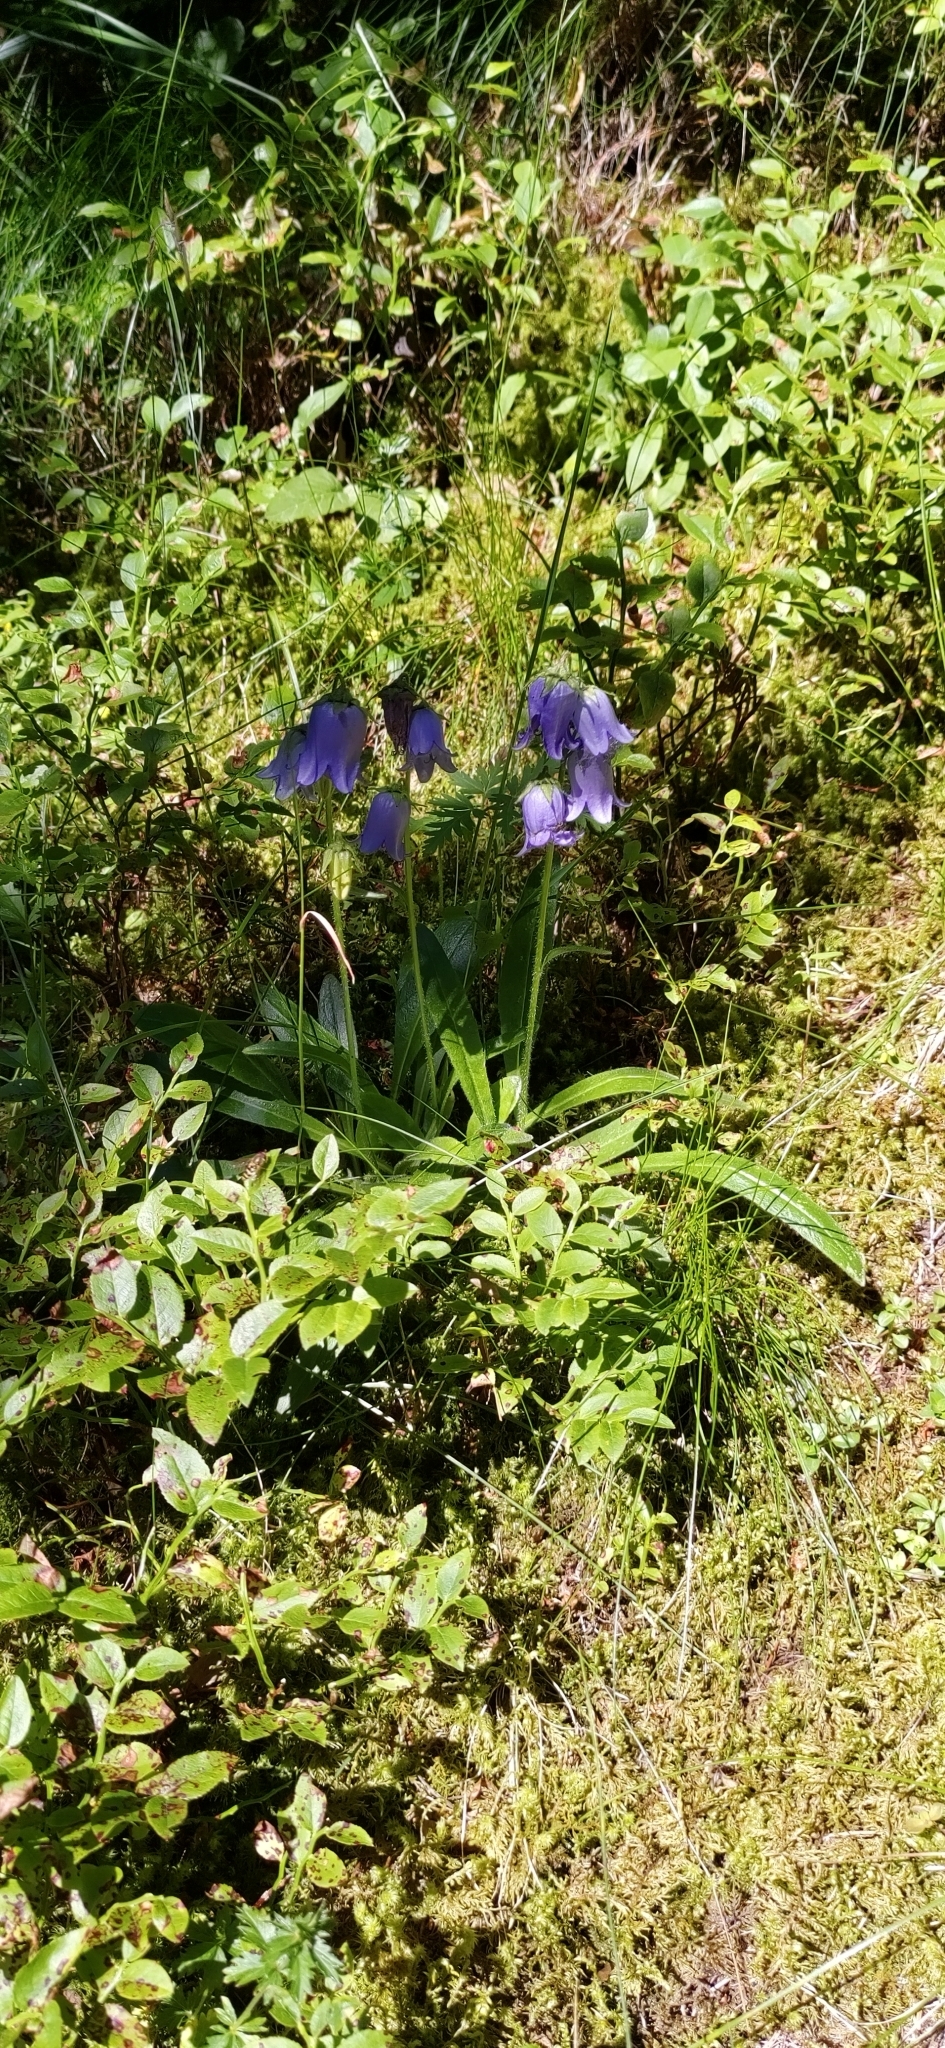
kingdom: Plantae
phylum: Tracheophyta
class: Magnoliopsida
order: Asterales
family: Campanulaceae
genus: Campanula
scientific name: Campanula barbata
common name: Bearded bellflower
